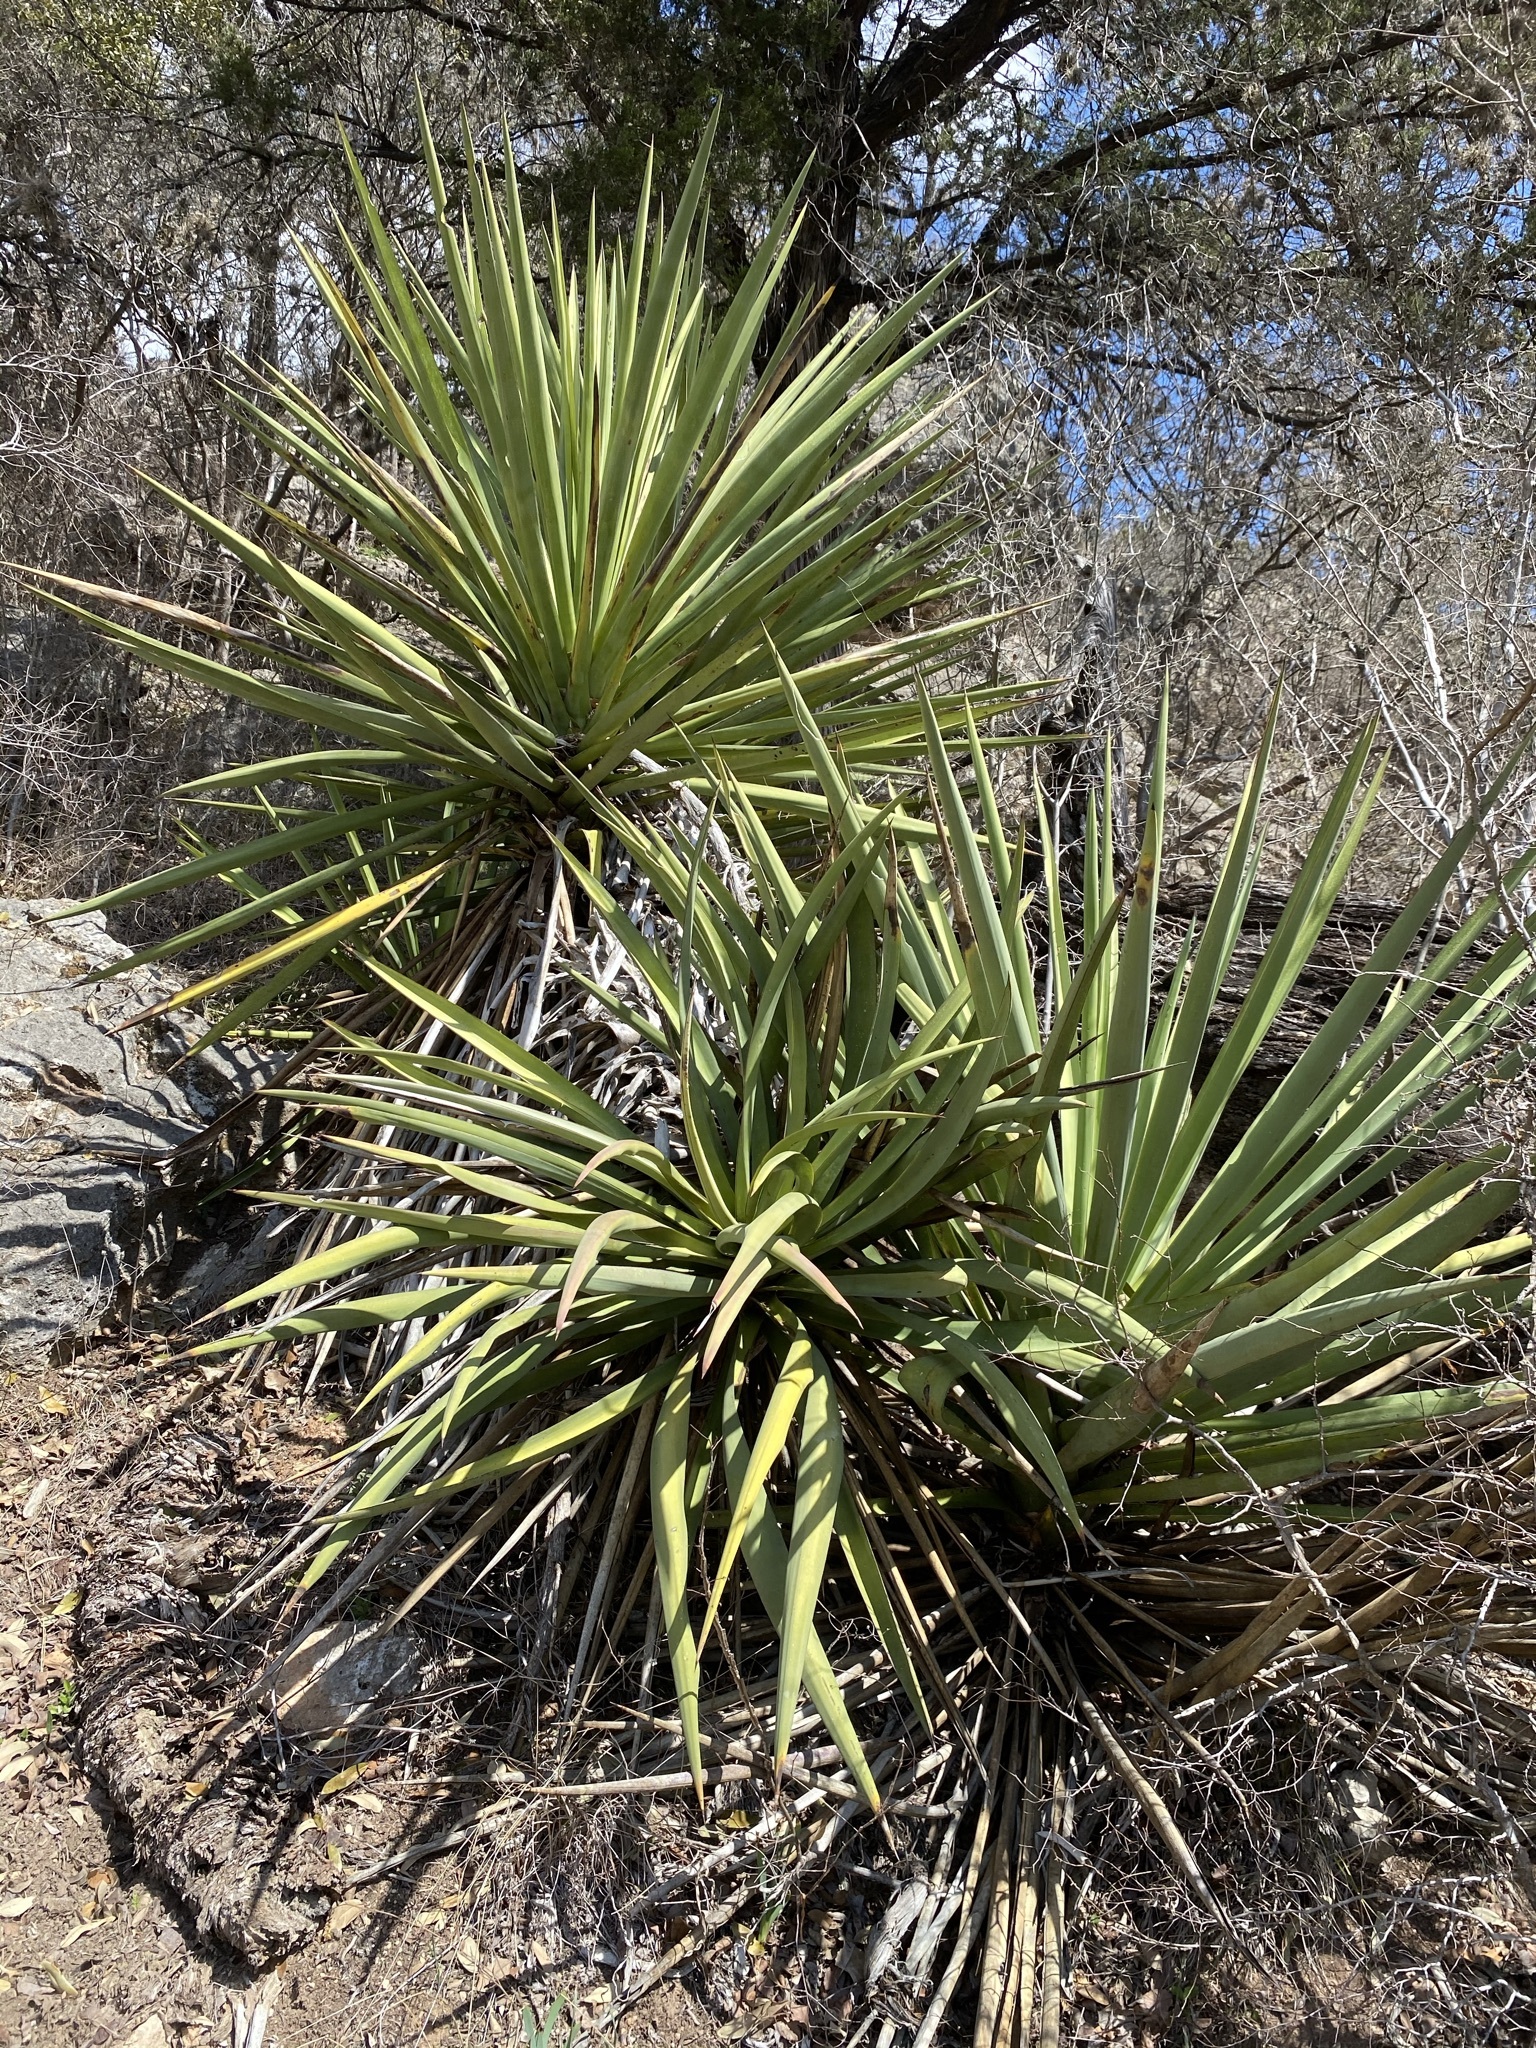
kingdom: Plantae
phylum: Tracheophyta
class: Liliopsida
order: Asparagales
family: Asparagaceae
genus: Yucca
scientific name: Yucca treculiana
